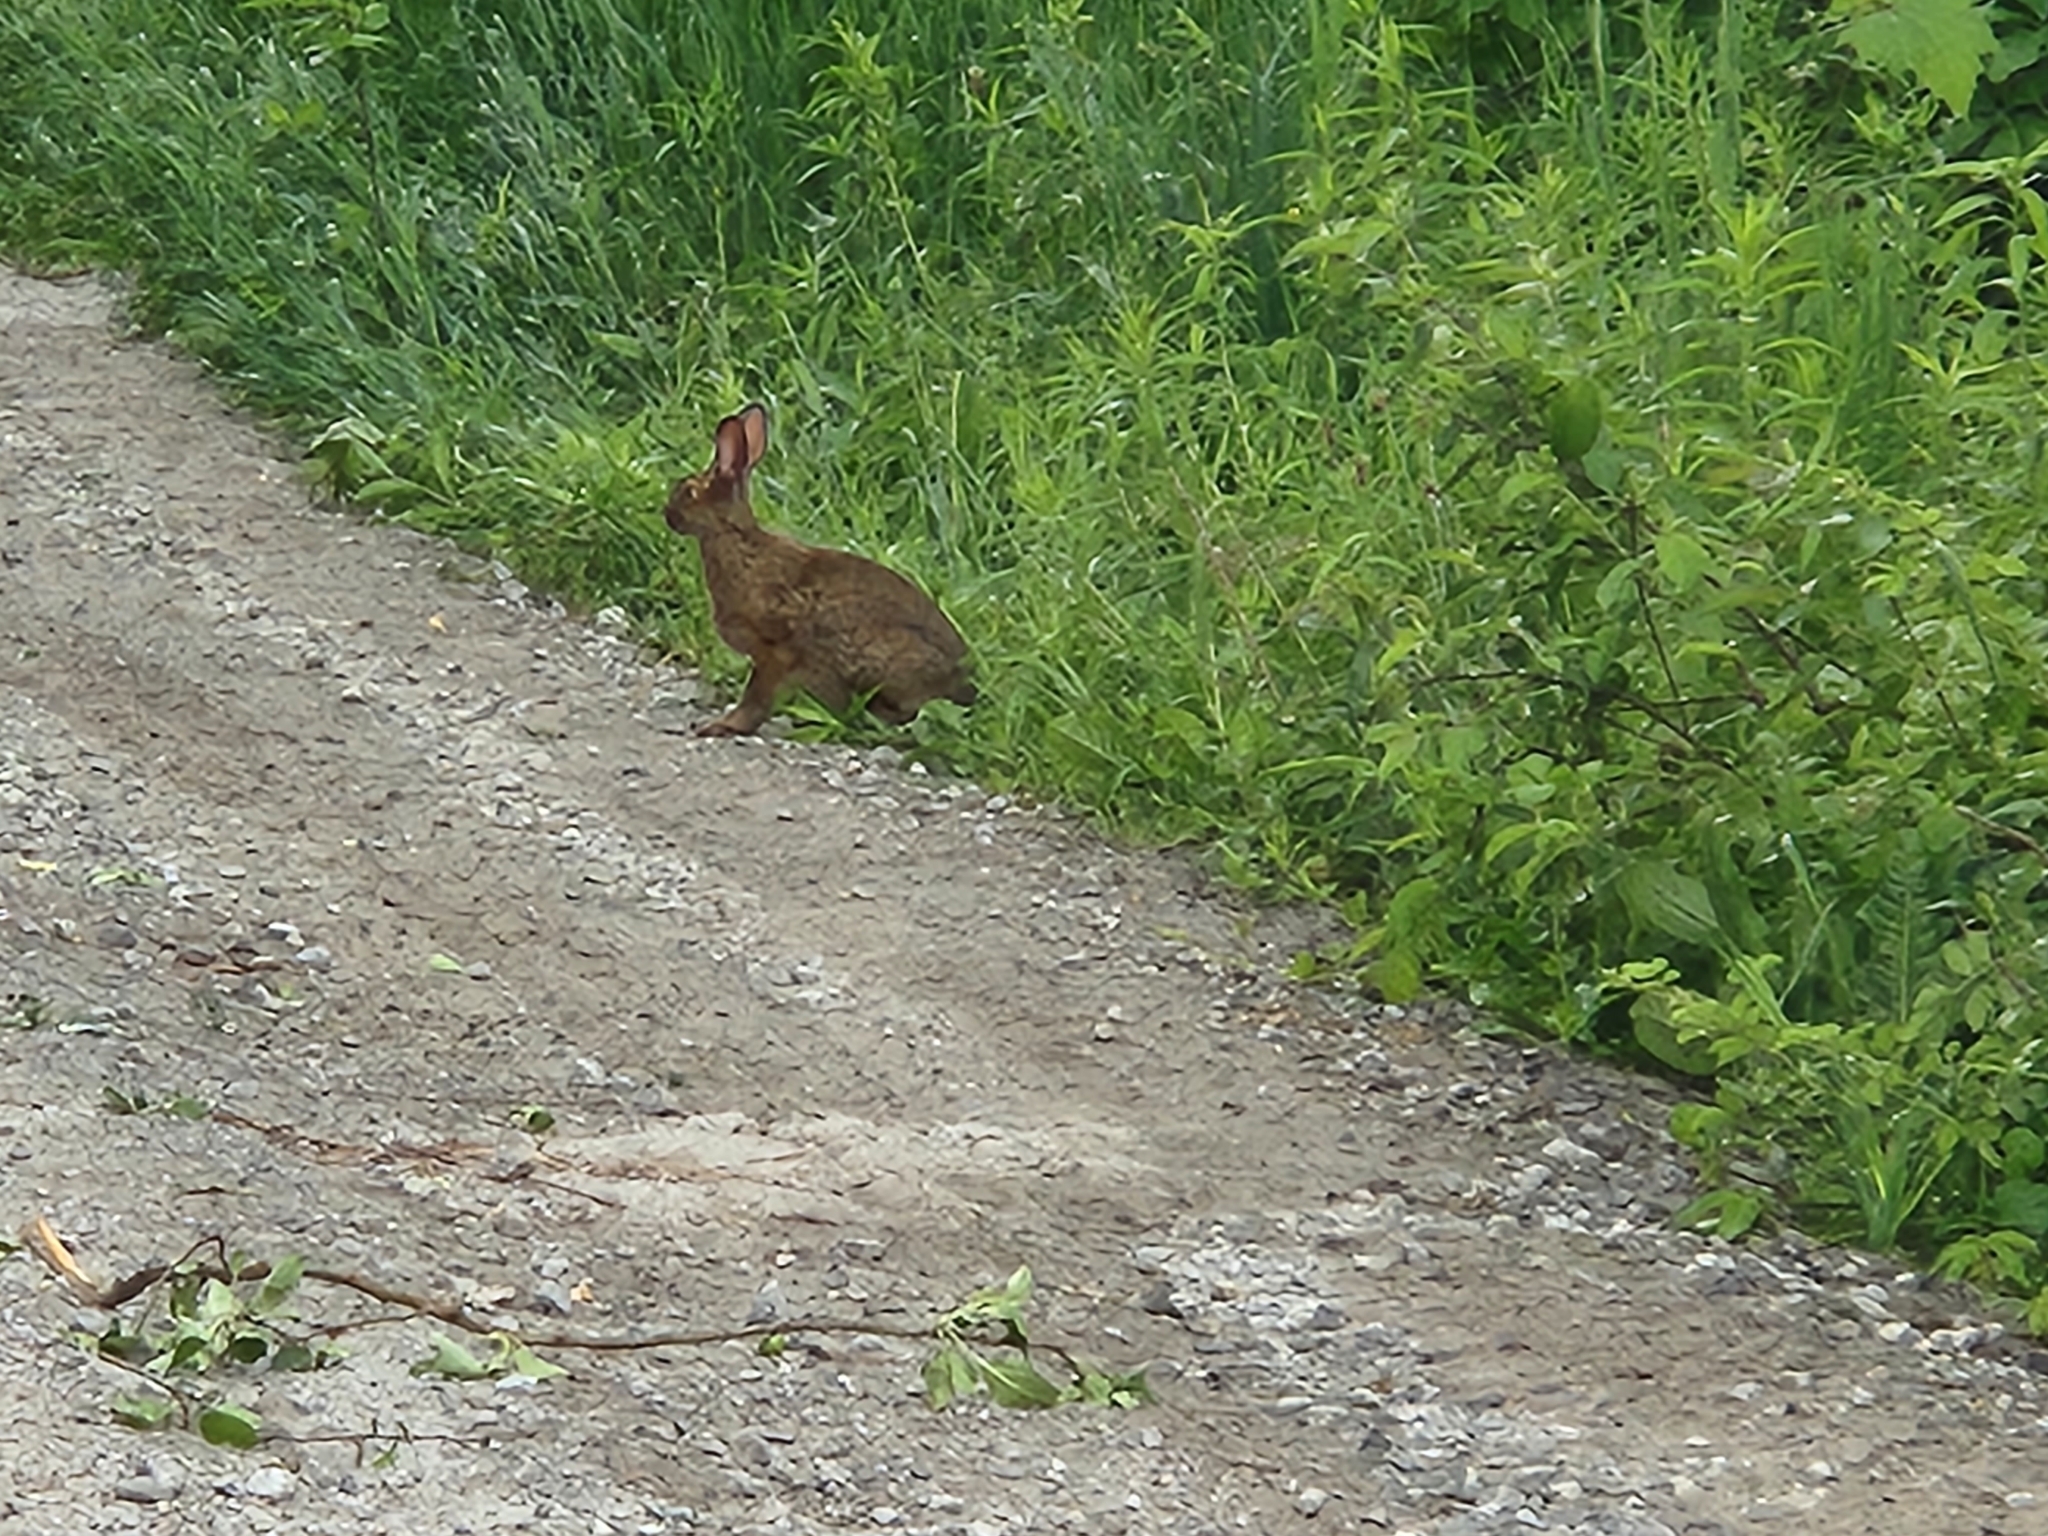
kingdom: Animalia
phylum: Chordata
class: Mammalia
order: Lagomorpha
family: Leporidae
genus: Lepus
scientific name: Lepus americanus
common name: Snowshoe hare
